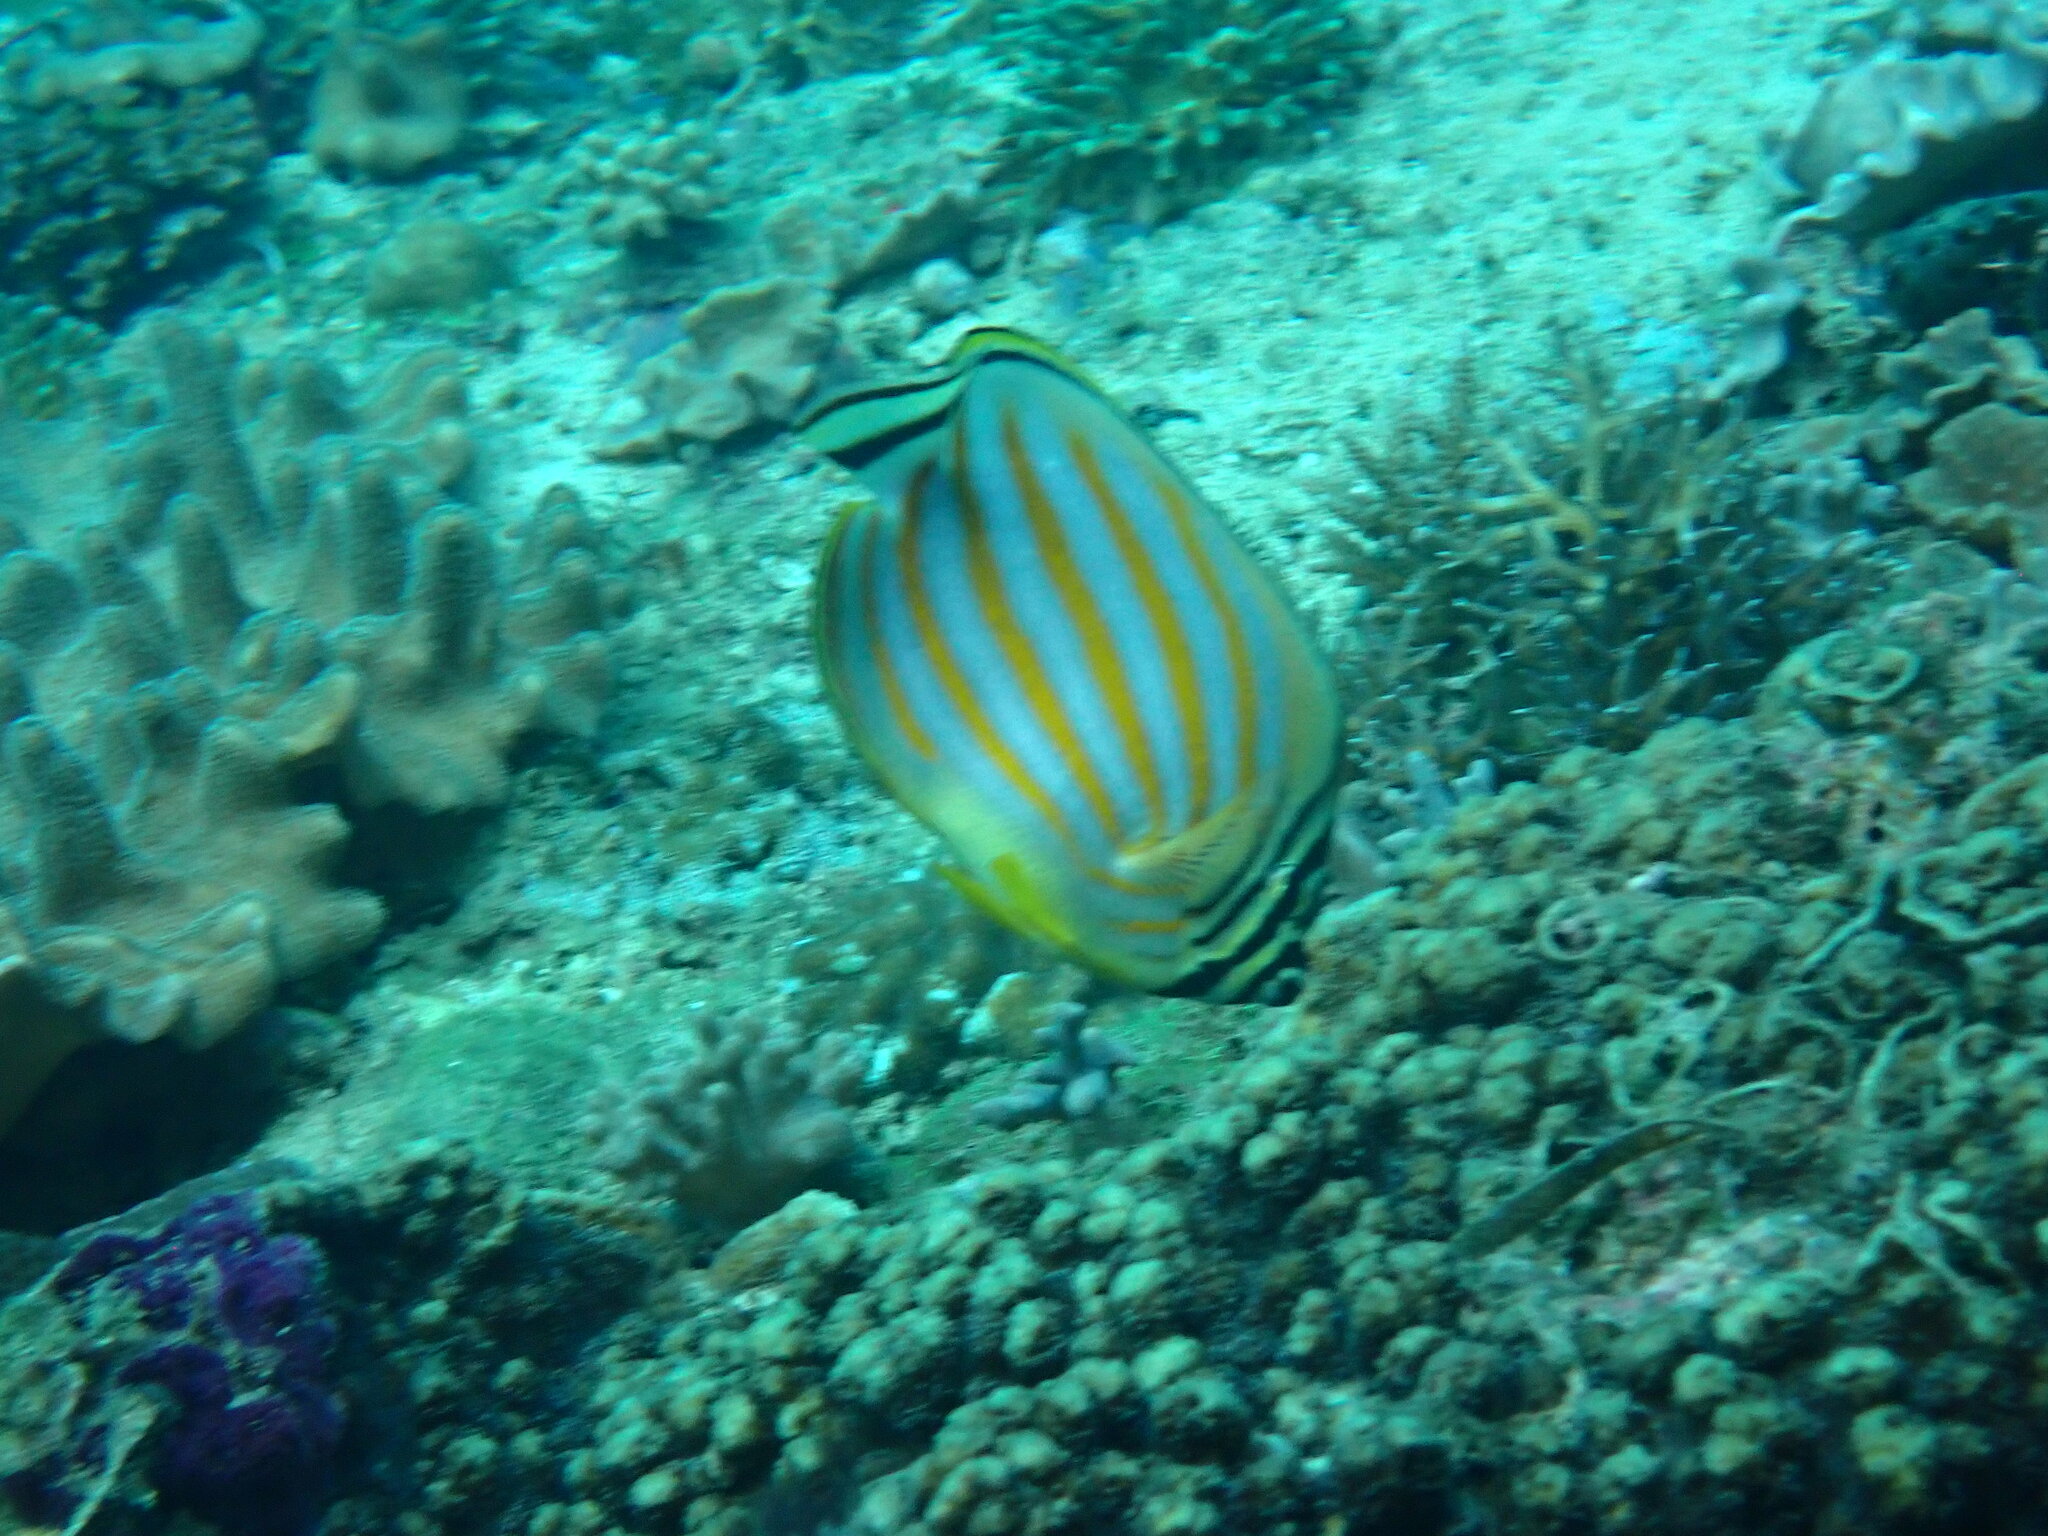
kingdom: Animalia
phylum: Chordata
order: Perciformes
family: Chaetodontidae
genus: Chaetodon
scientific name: Chaetodon ornatissimus
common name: Ornate butterflyfish
